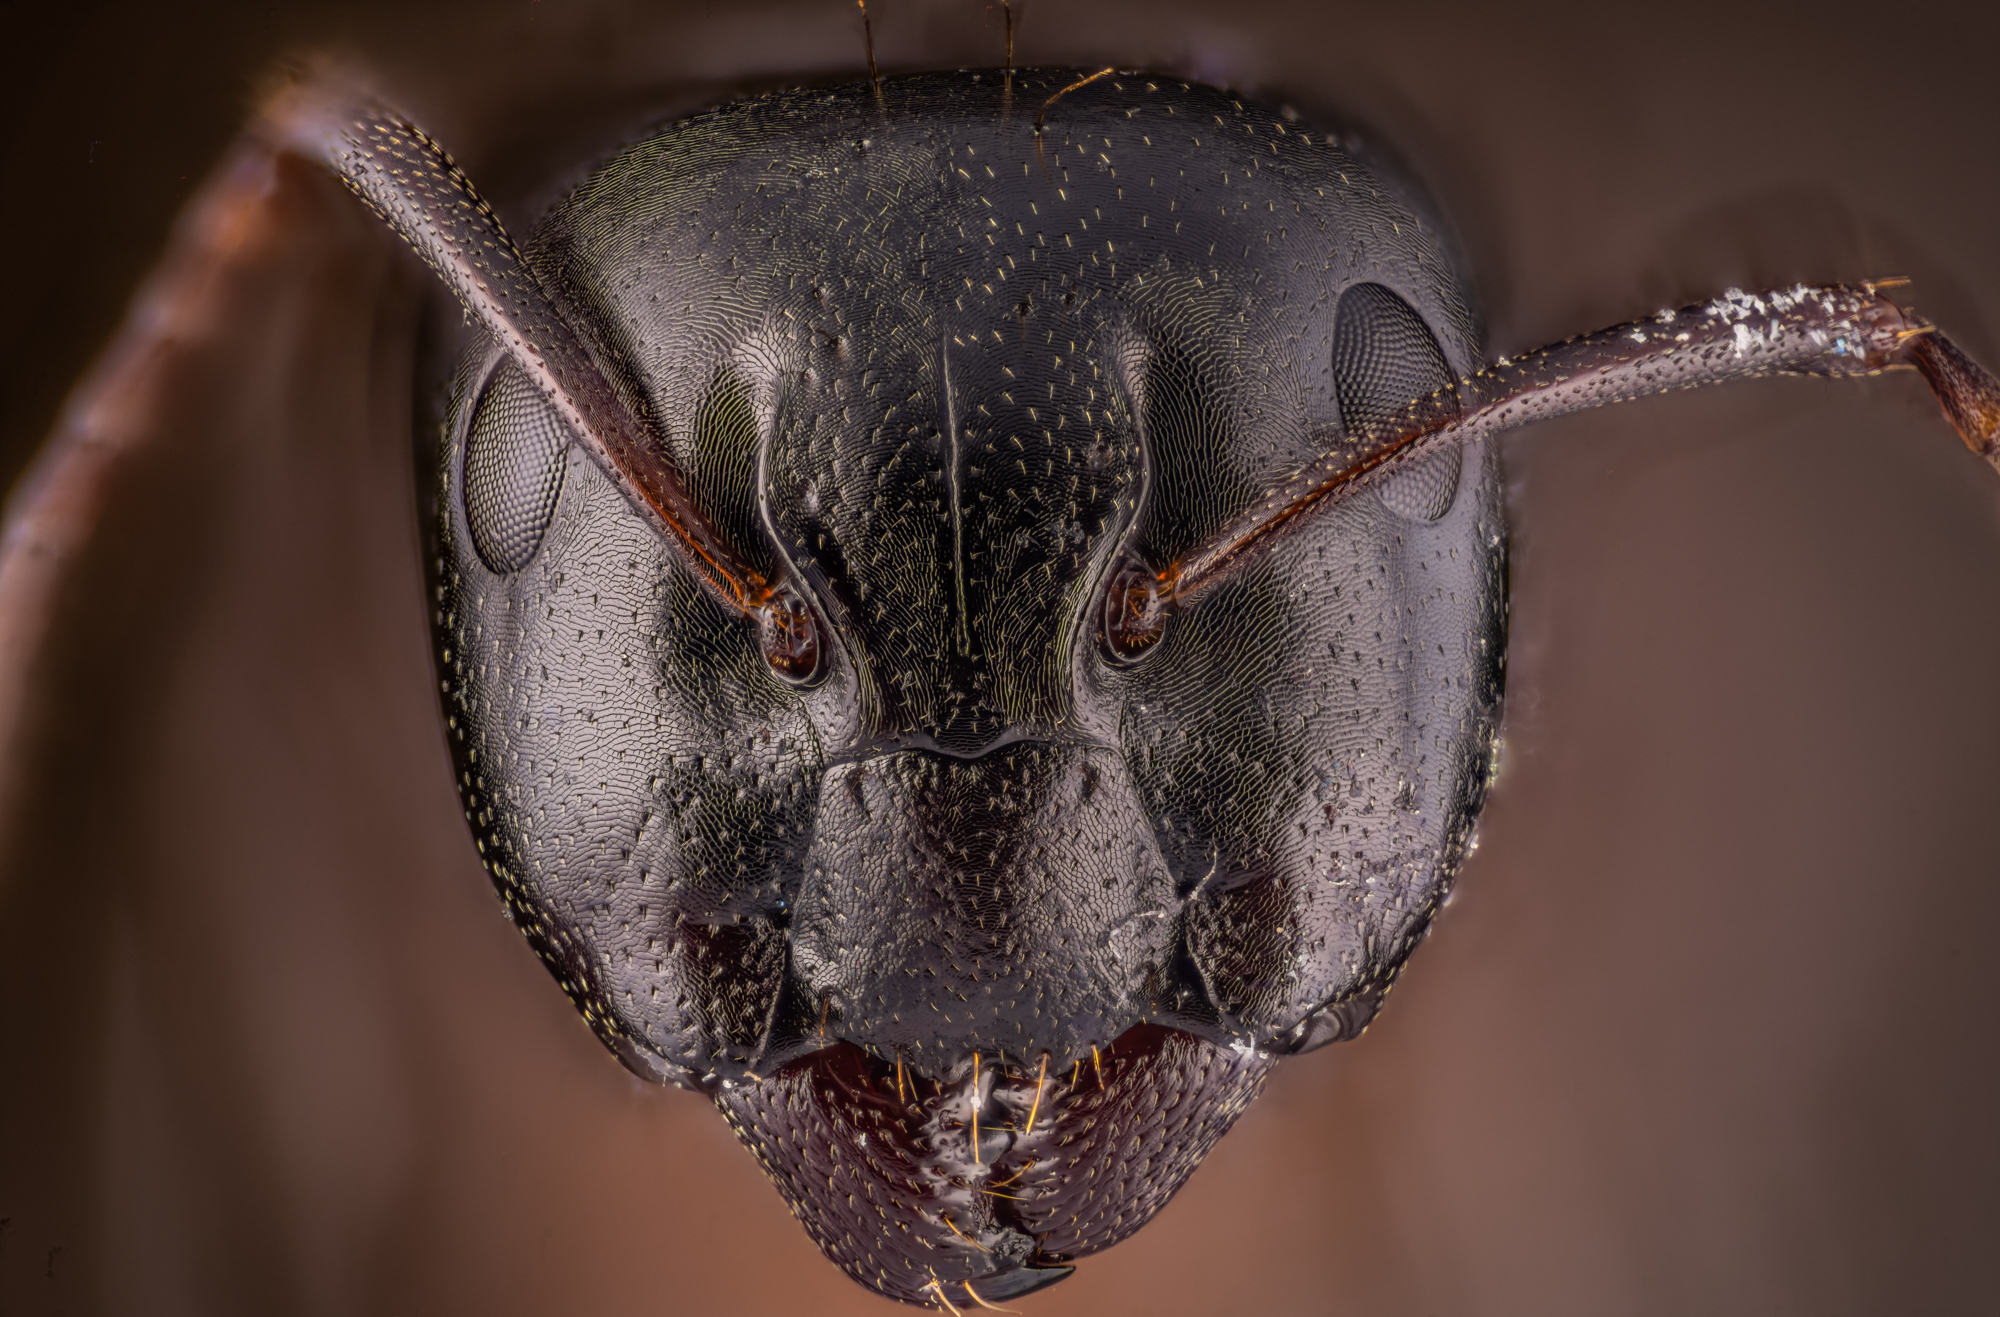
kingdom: Animalia
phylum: Arthropoda
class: Insecta
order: Hymenoptera
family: Formicidae
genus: Camponotus
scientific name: Camponotus fallax
